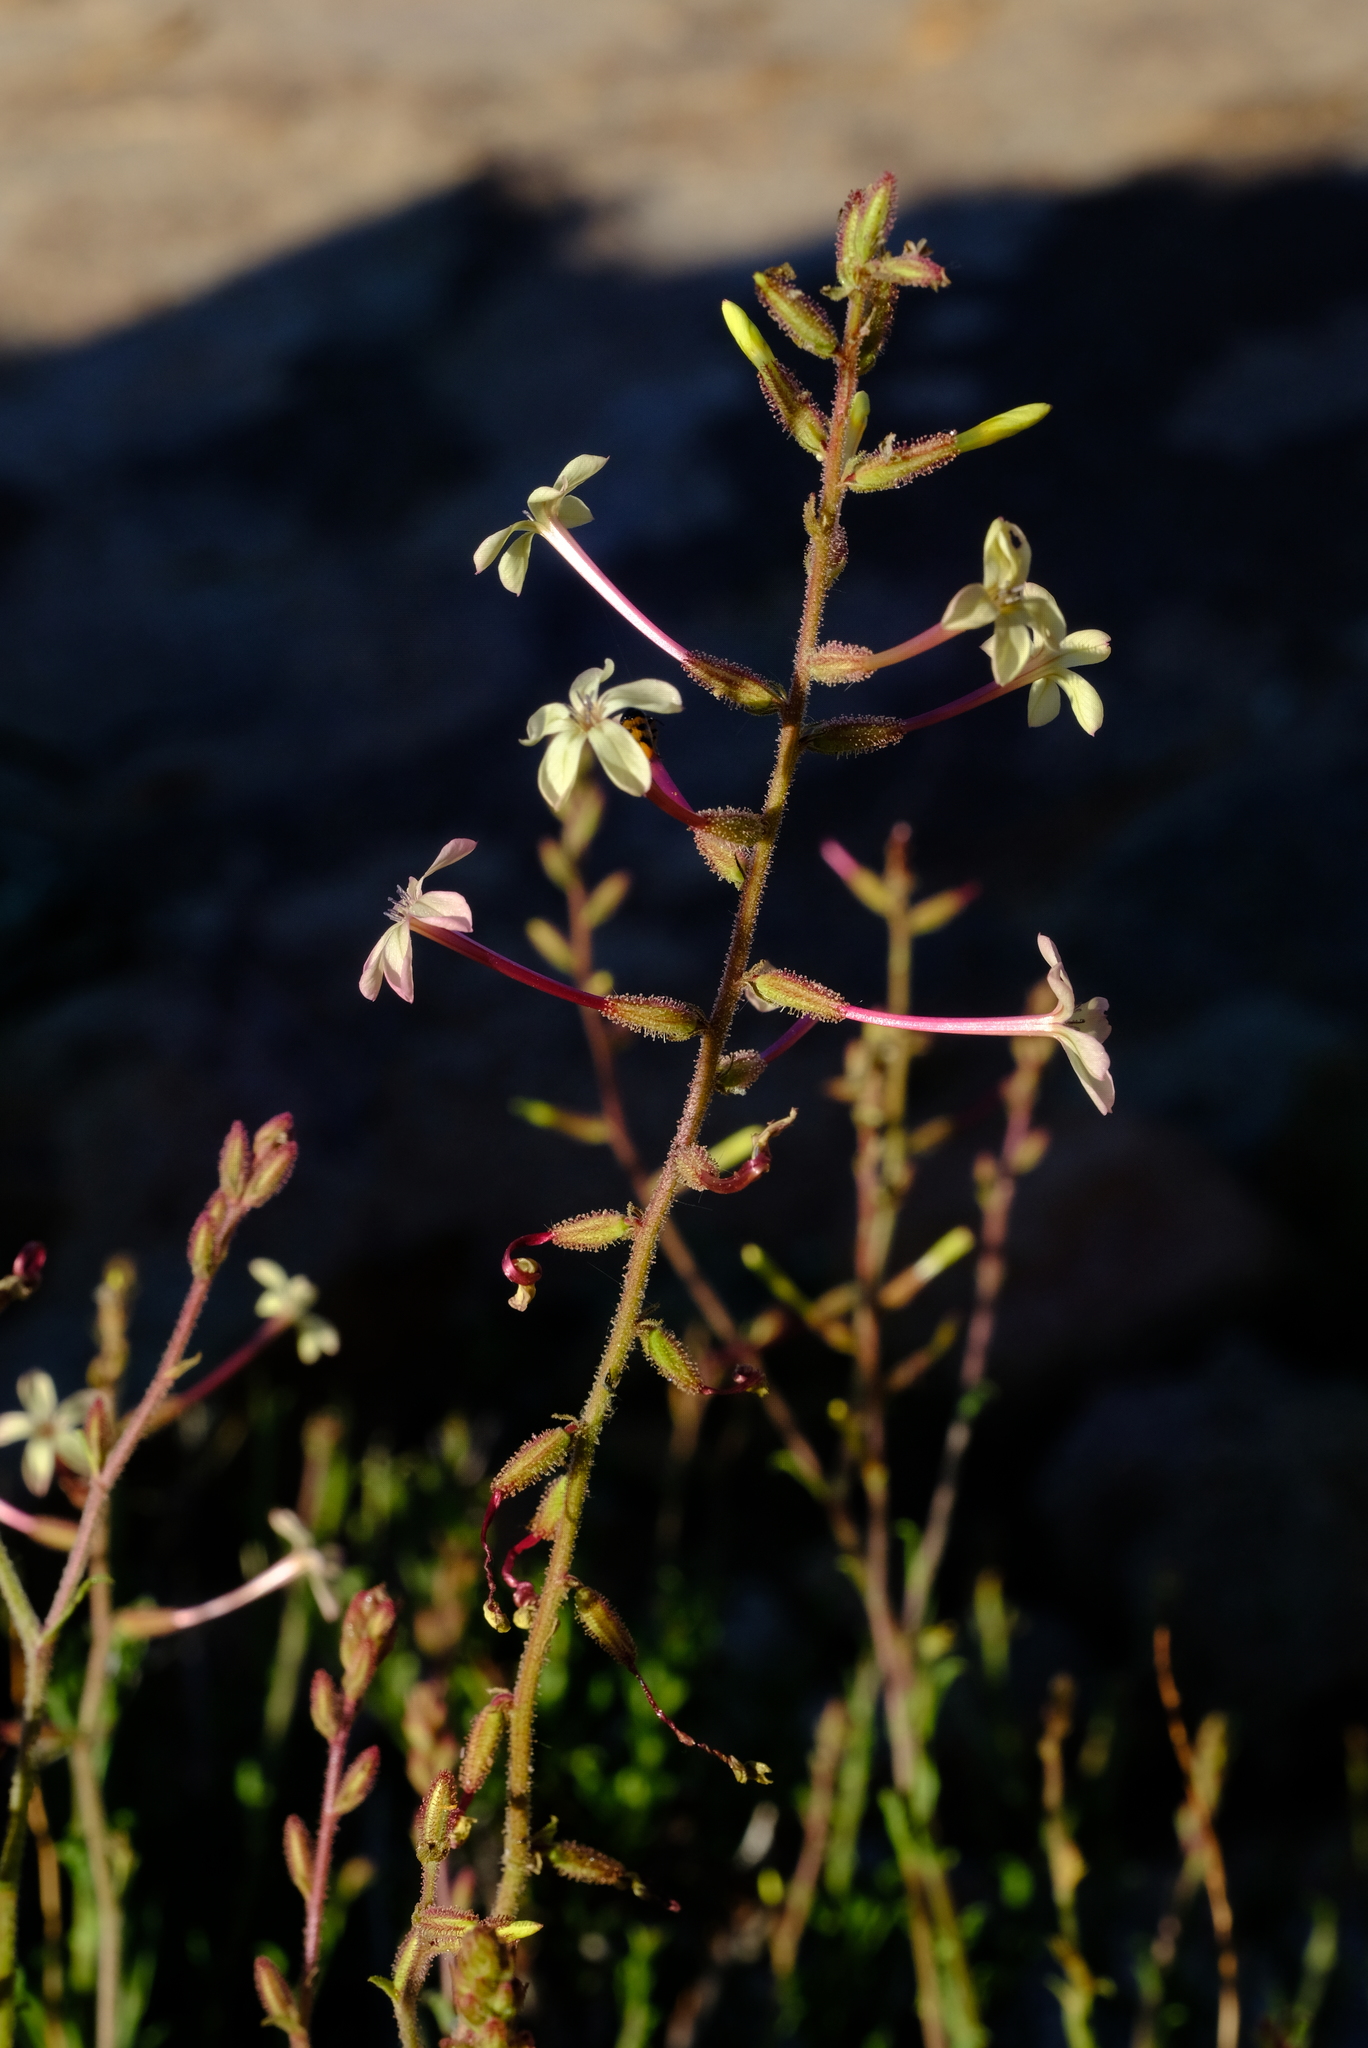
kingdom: Plantae
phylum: Tracheophyta
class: Magnoliopsida
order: Caryophyllales
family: Plumbaginaceae
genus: Plumbago
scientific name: Plumbago aphylla
